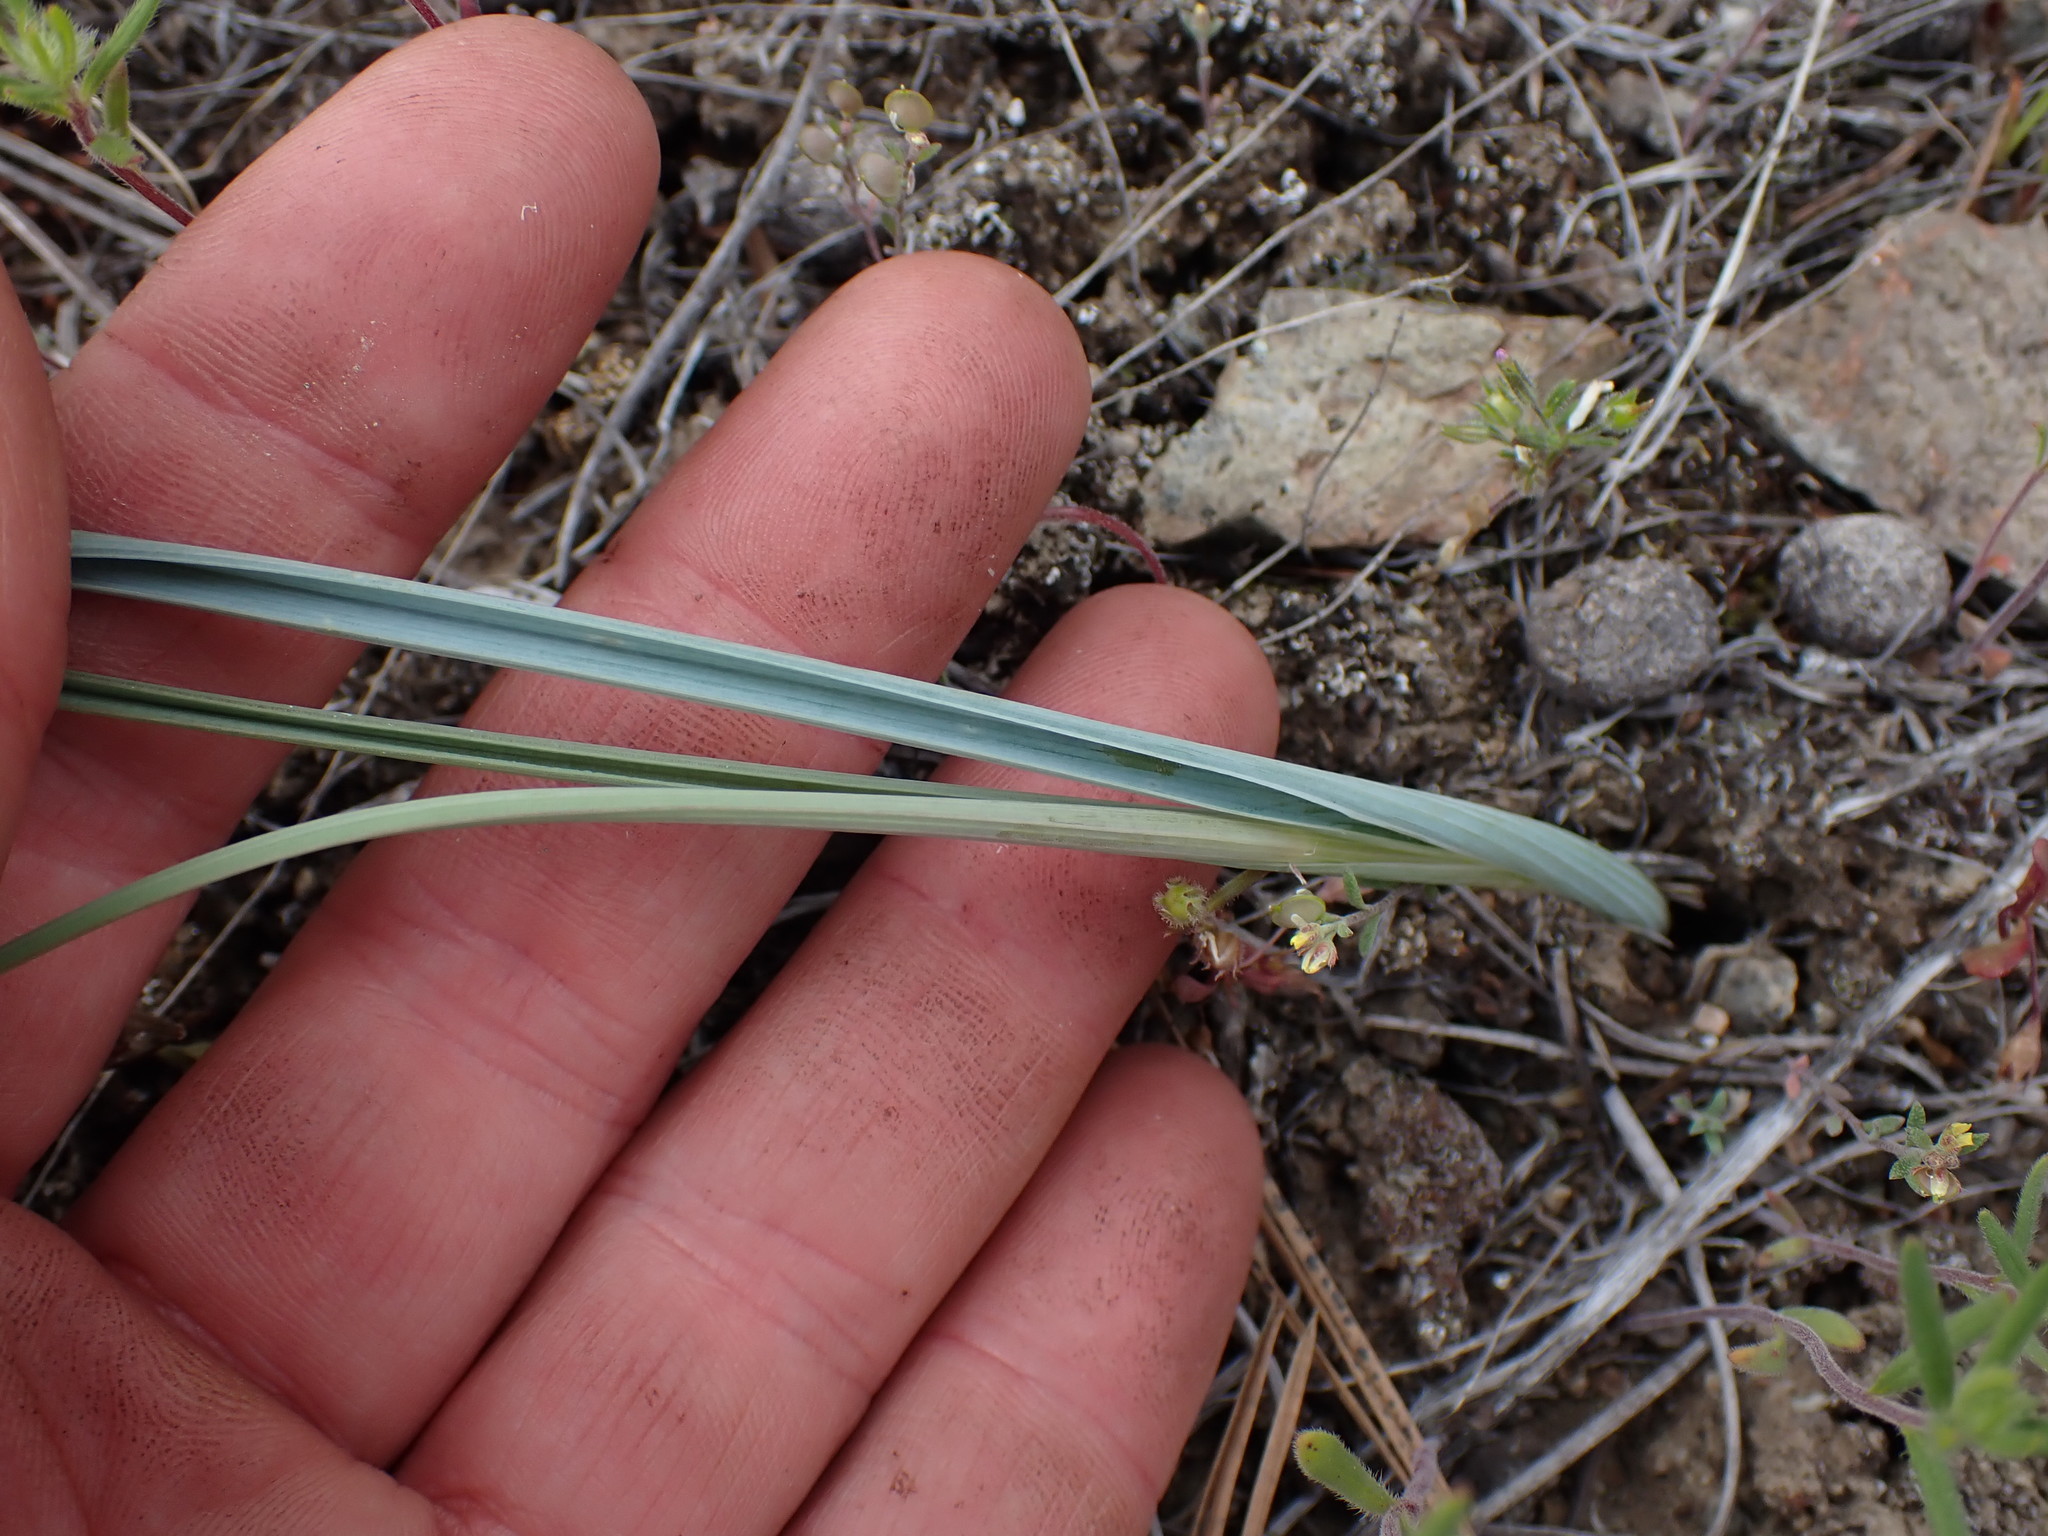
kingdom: Plantae
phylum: Tracheophyta
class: Liliopsida
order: Liliales
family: Liliaceae
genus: Calochortus
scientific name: Calochortus macrocarpus
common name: Green-band mariposa lily
